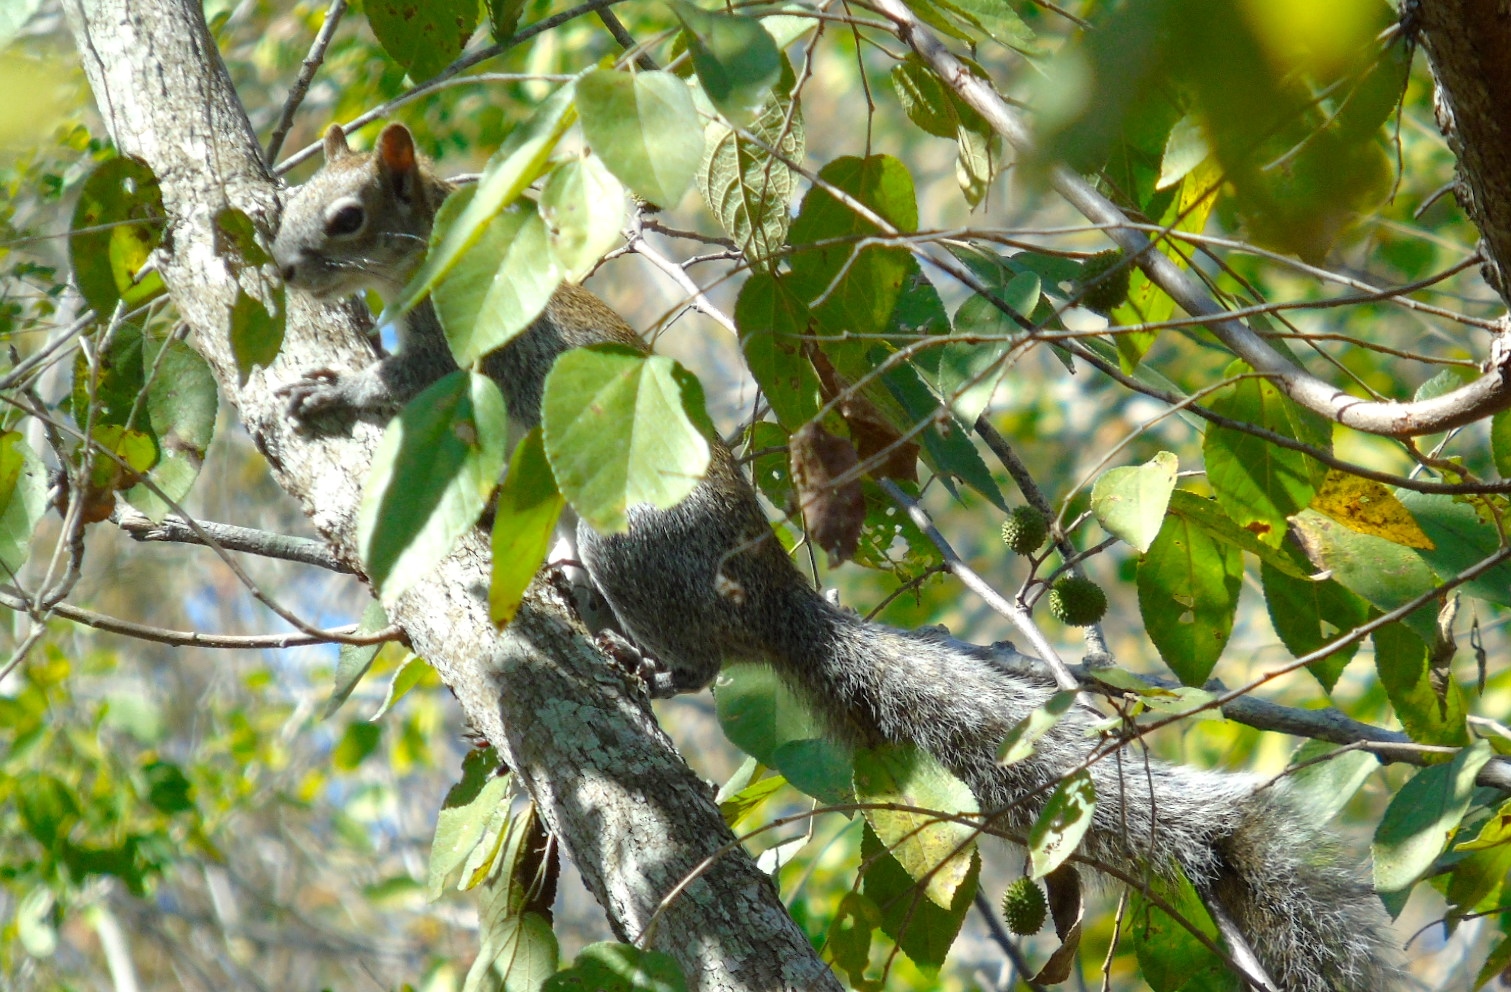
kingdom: Animalia
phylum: Chordata
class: Mammalia
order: Rodentia
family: Sciuridae
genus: Sciurus
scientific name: Sciurus colliaei
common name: Collie's squirrel
